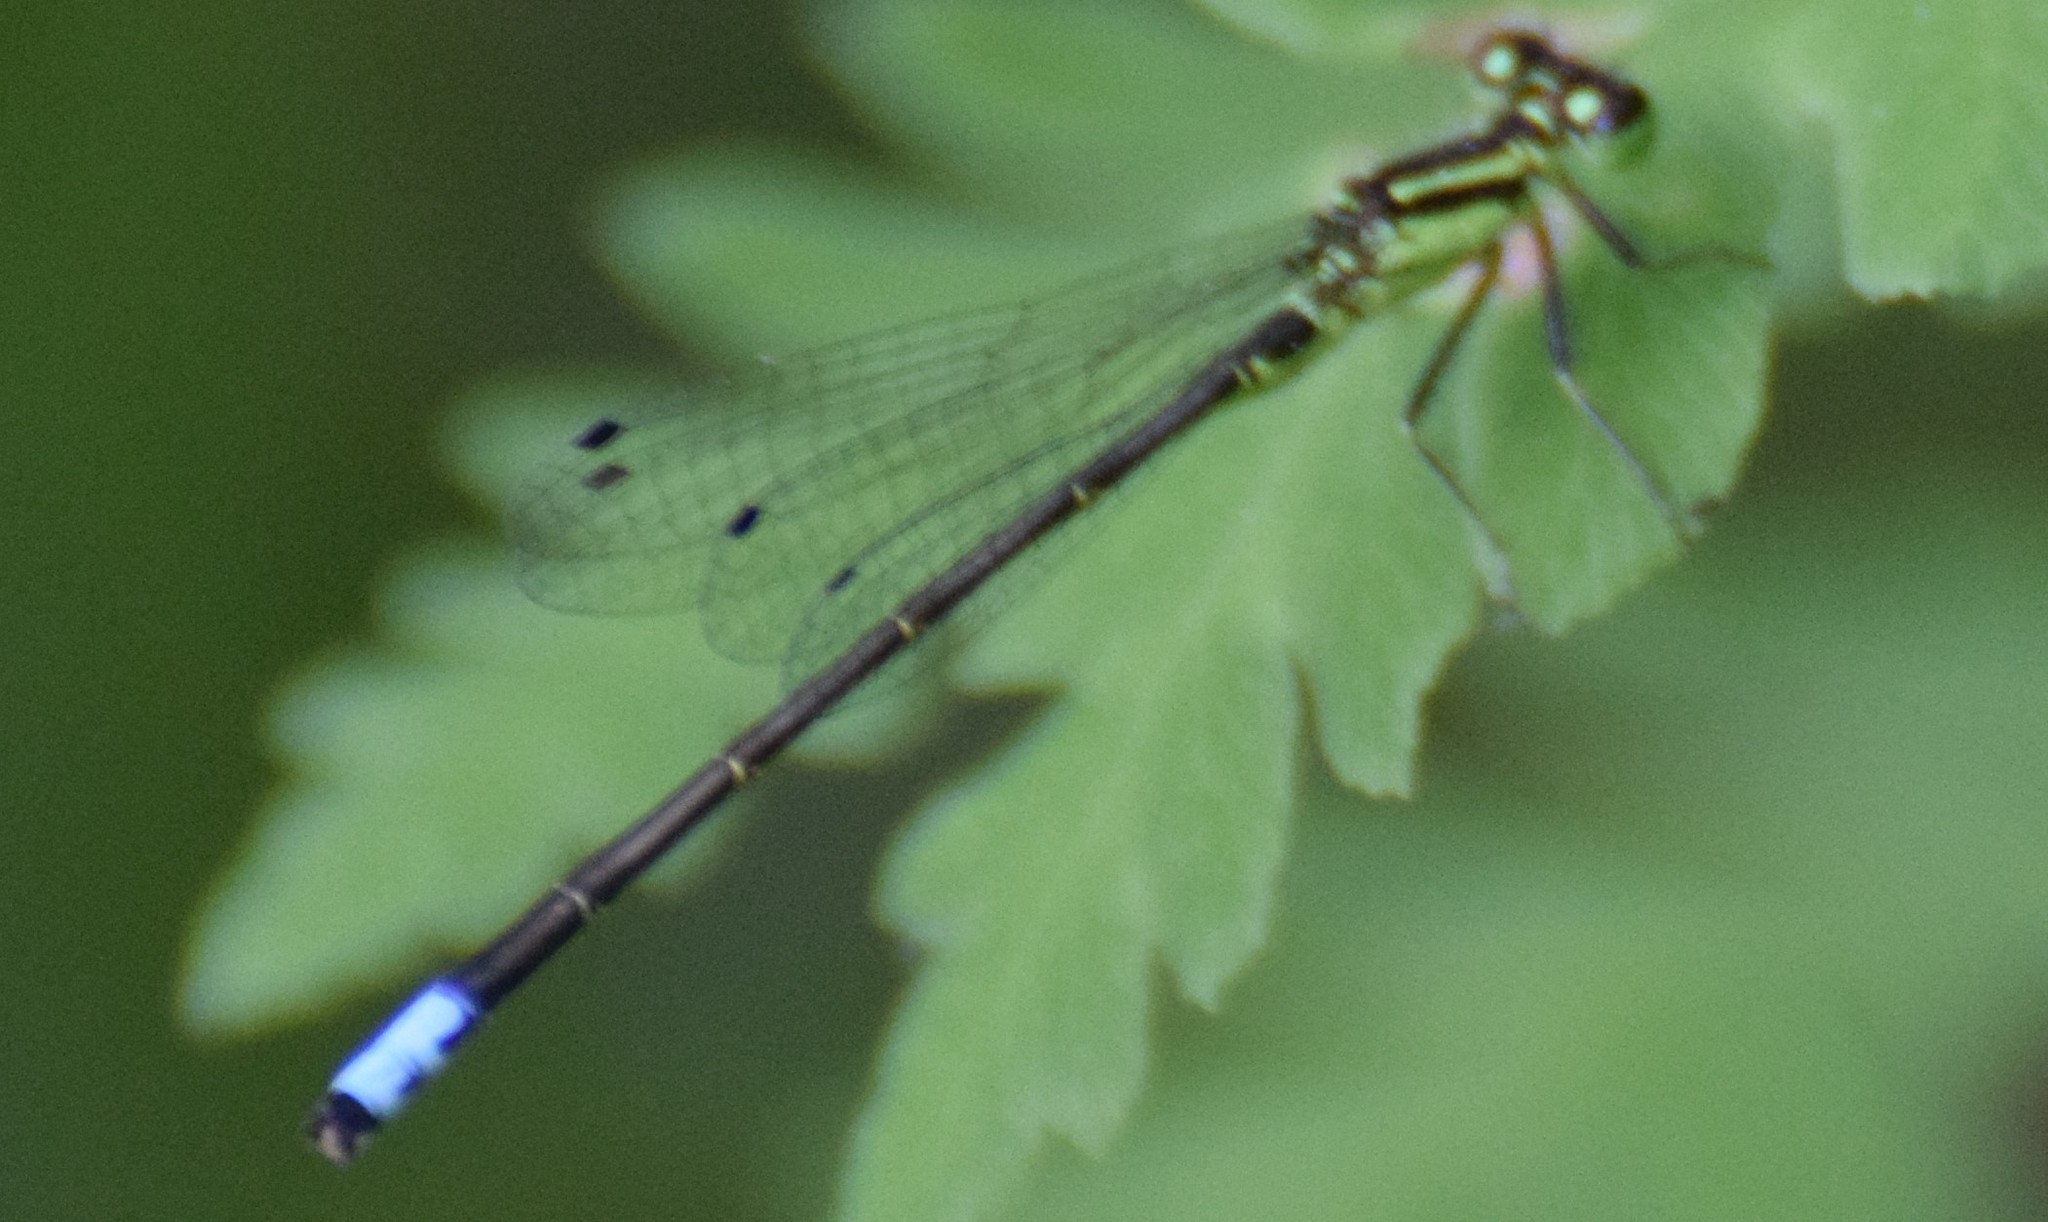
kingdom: Animalia
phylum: Arthropoda
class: Insecta
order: Odonata
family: Coenagrionidae
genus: Ischnura
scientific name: Ischnura verticalis
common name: Eastern forktail
